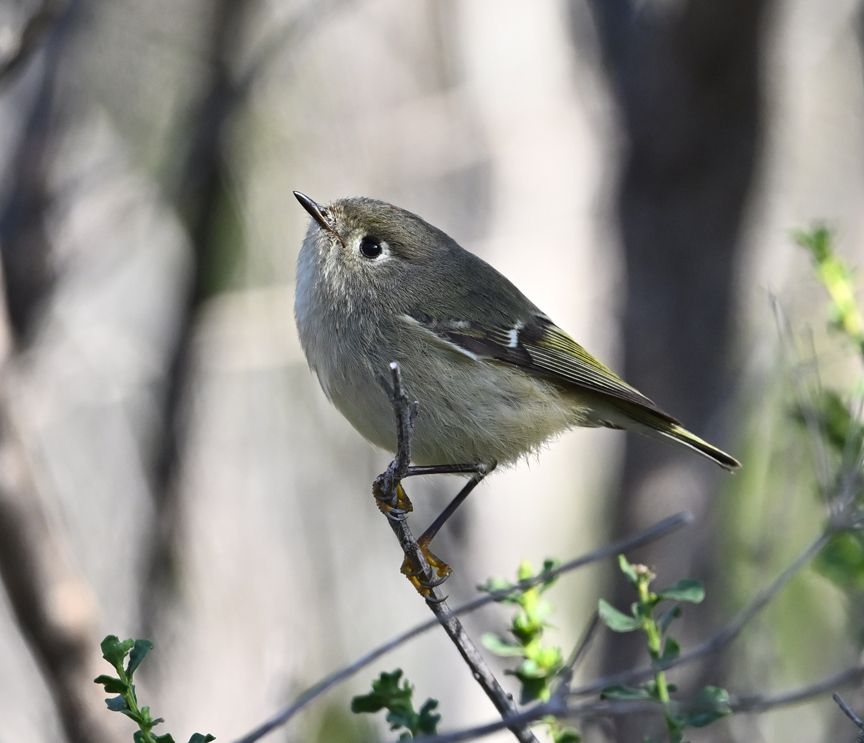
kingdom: Animalia
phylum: Chordata
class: Aves
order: Passeriformes
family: Regulidae
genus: Regulus
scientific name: Regulus calendula
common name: Ruby-crowned kinglet
